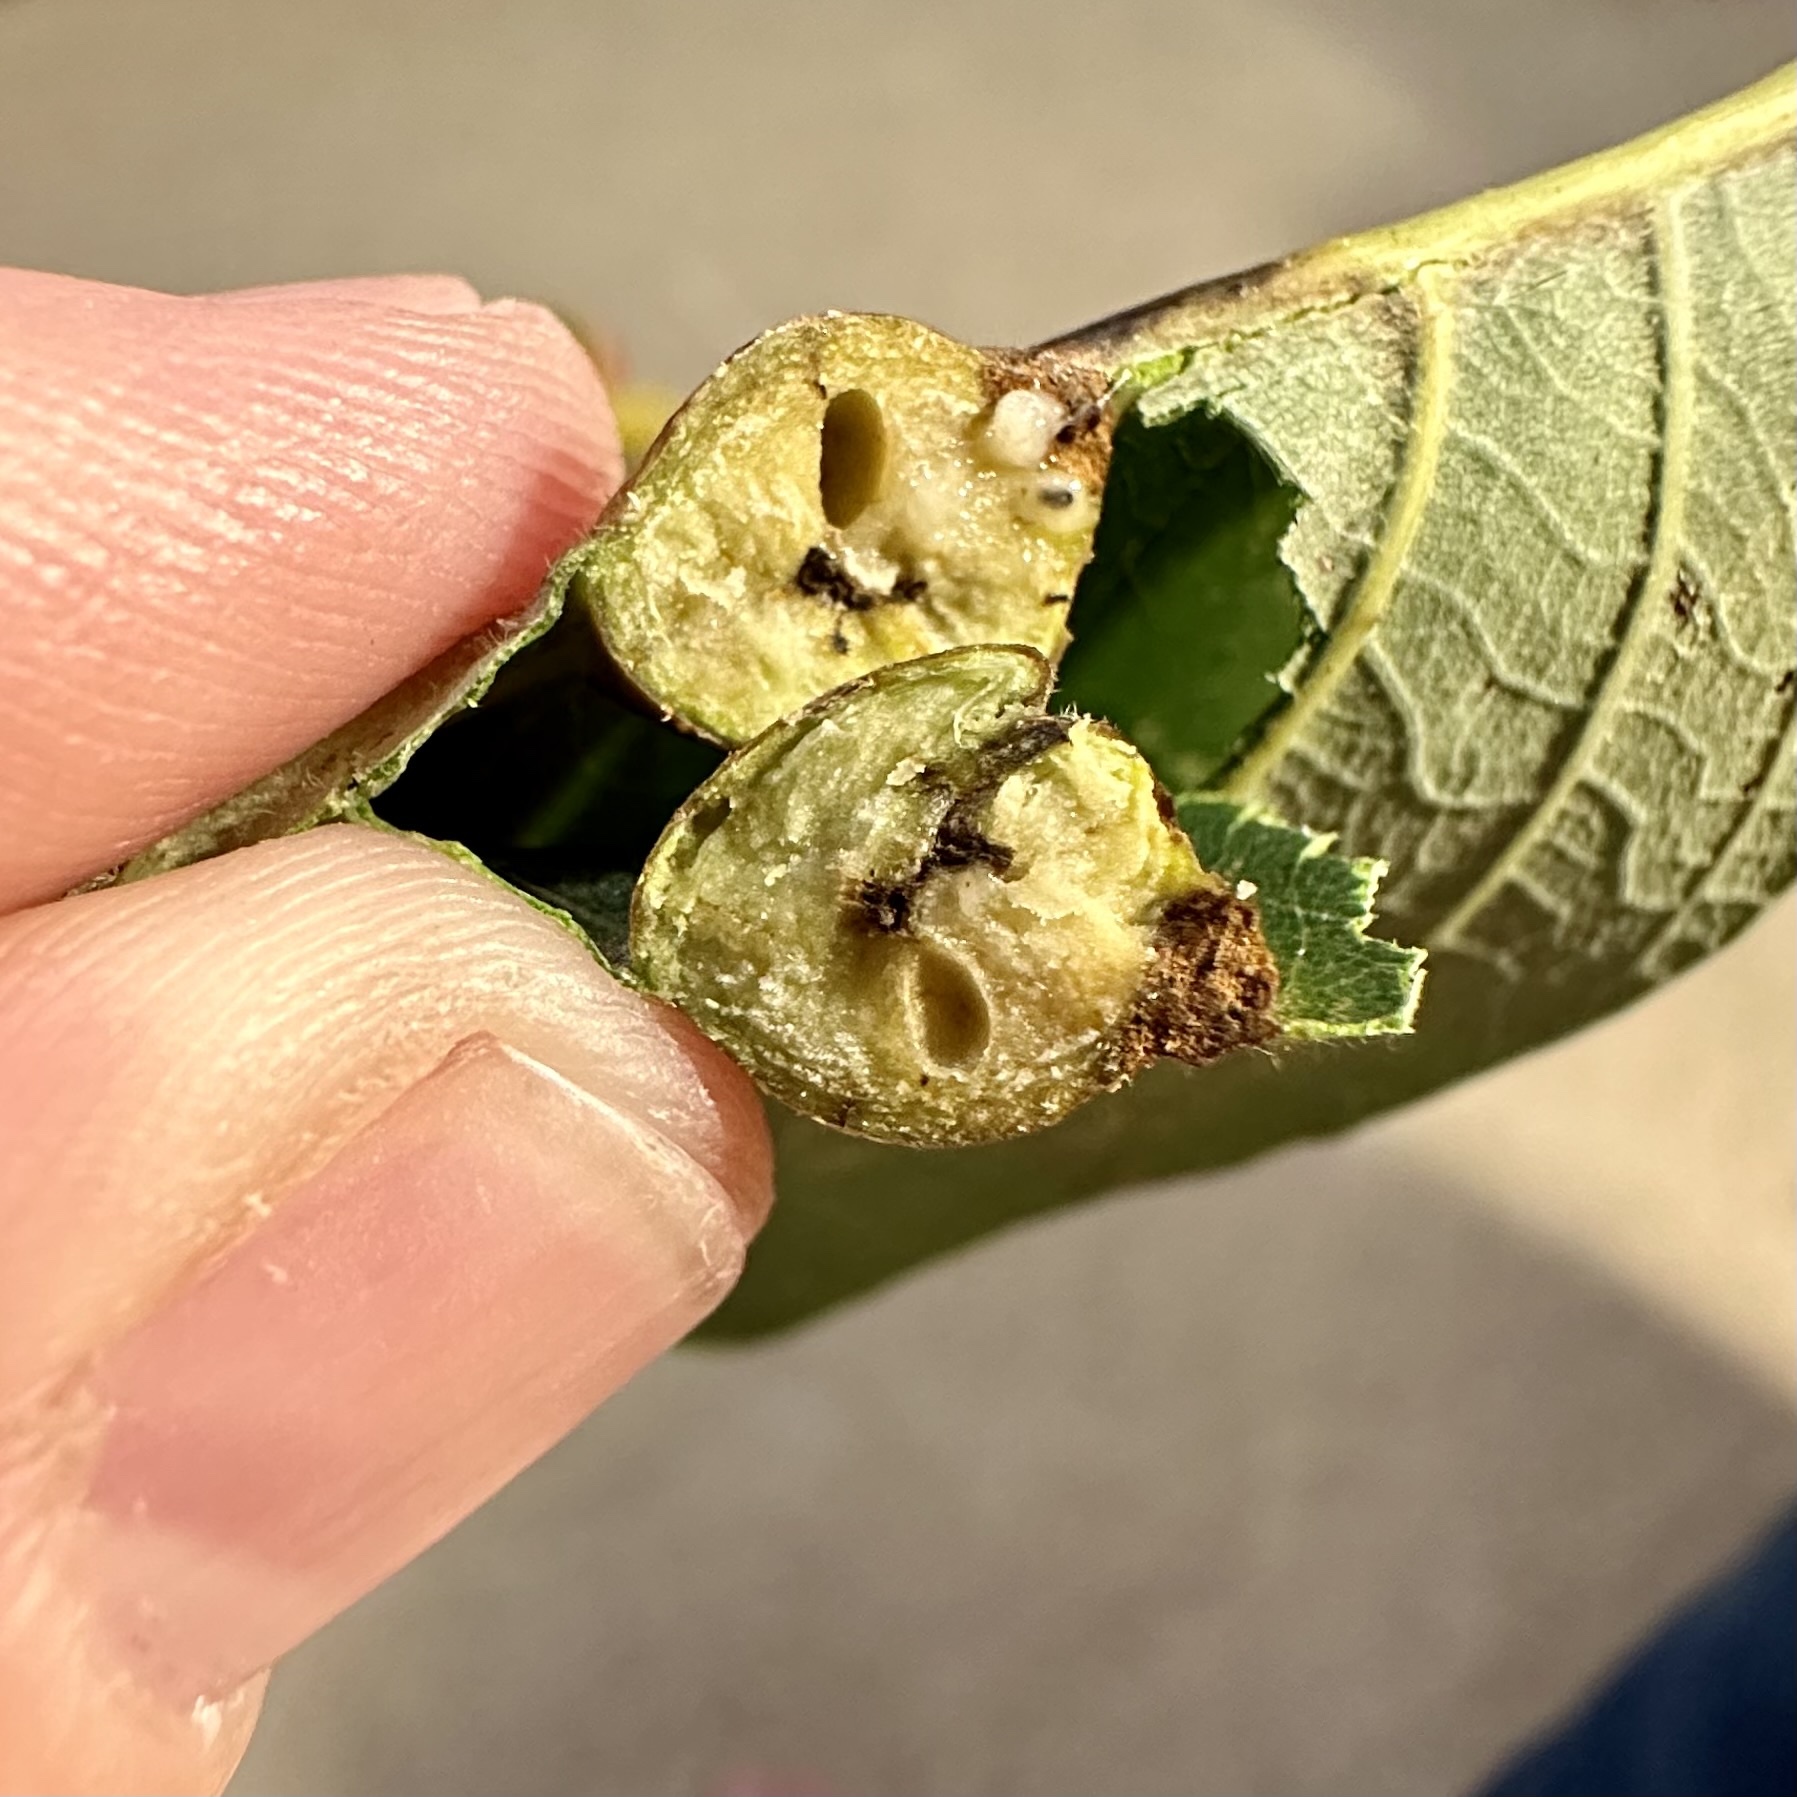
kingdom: Animalia
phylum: Arthropoda
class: Insecta
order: Hymenoptera
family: Cynipidae
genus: Andricus
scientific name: Andricus
